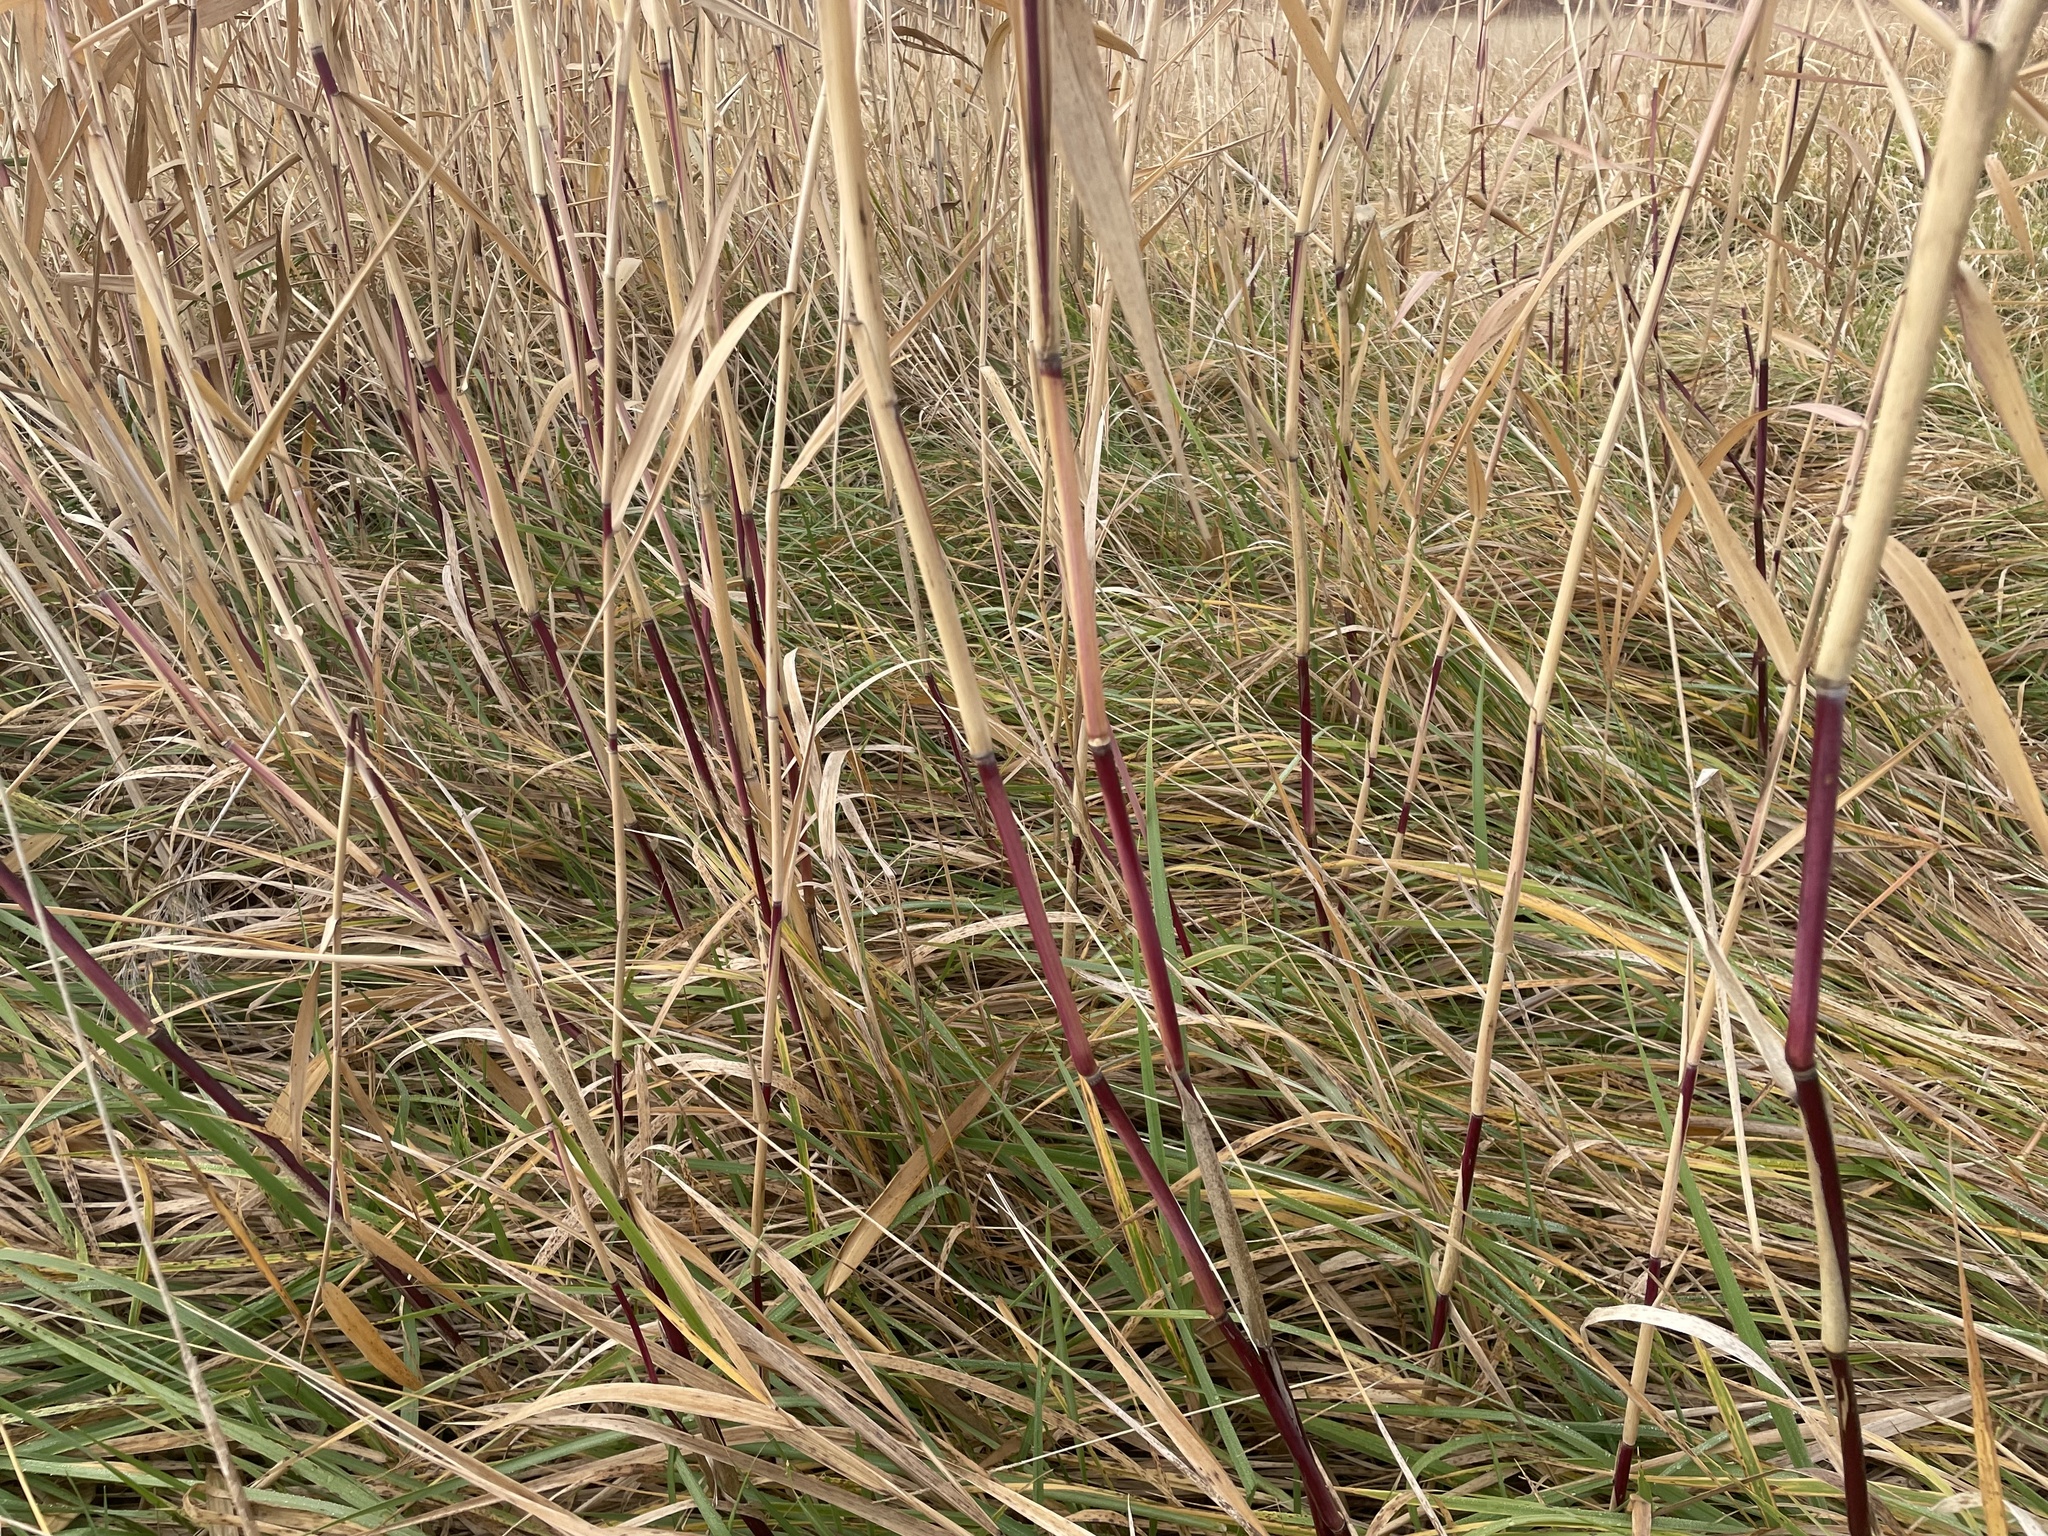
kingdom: Plantae
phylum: Tracheophyta
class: Liliopsida
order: Poales
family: Poaceae
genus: Phragmites
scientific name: Phragmites australis
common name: Common reed
